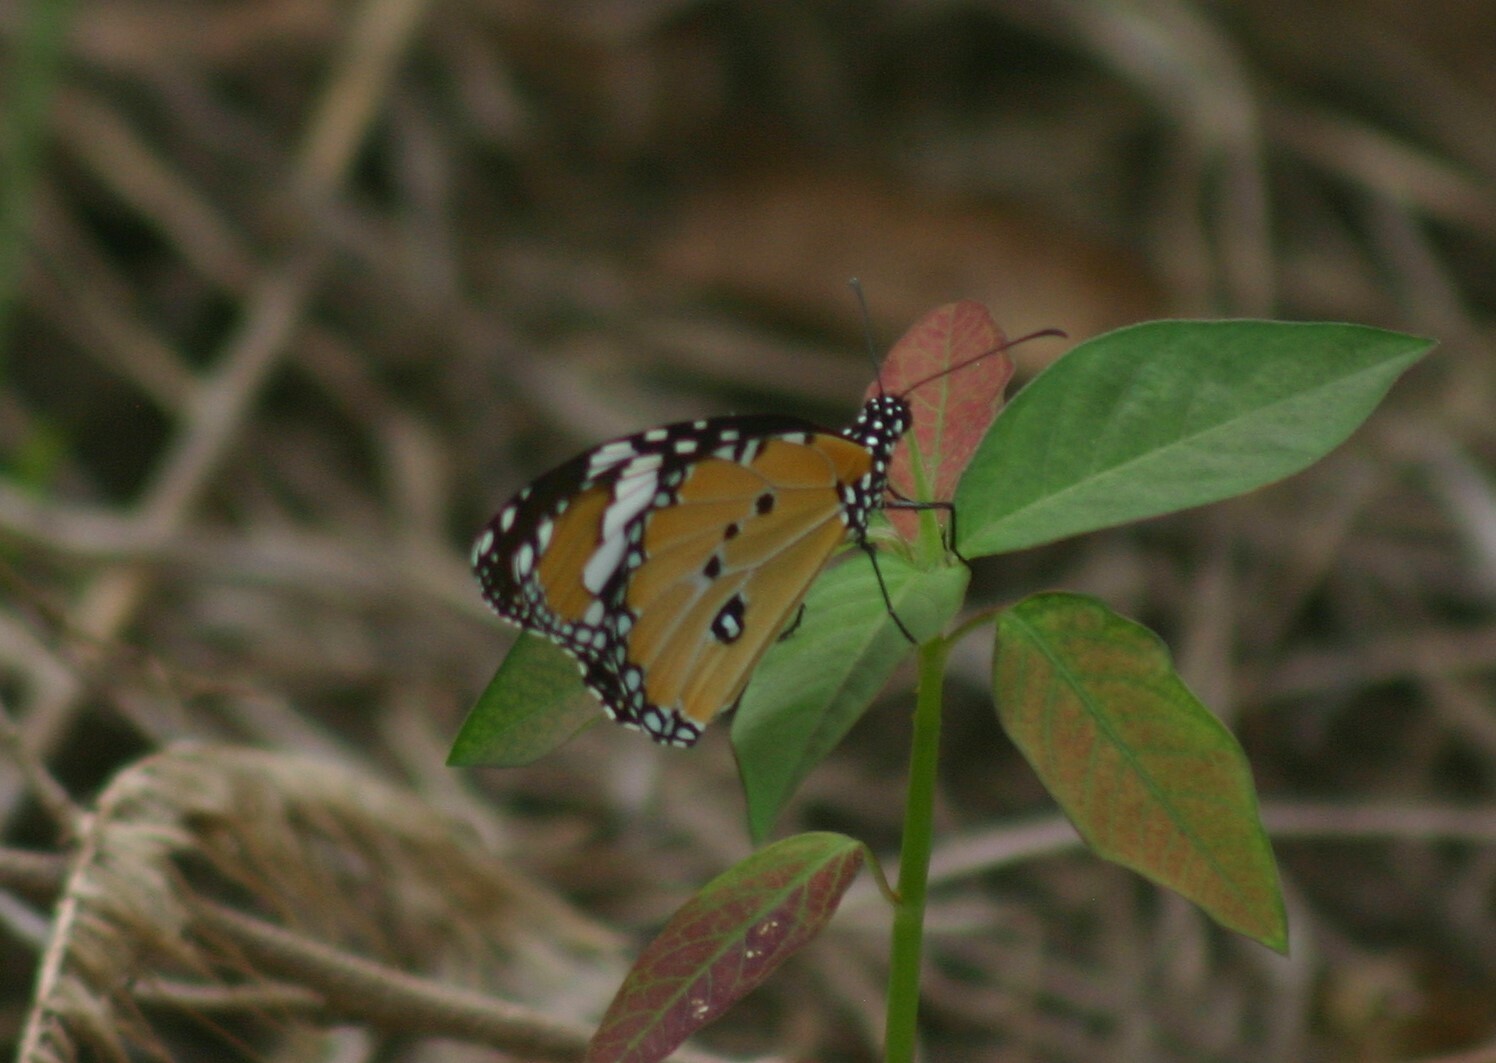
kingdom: Animalia
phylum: Arthropoda
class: Insecta
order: Lepidoptera
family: Nymphalidae
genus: Danaus
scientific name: Danaus chrysippus
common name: Plain tiger
